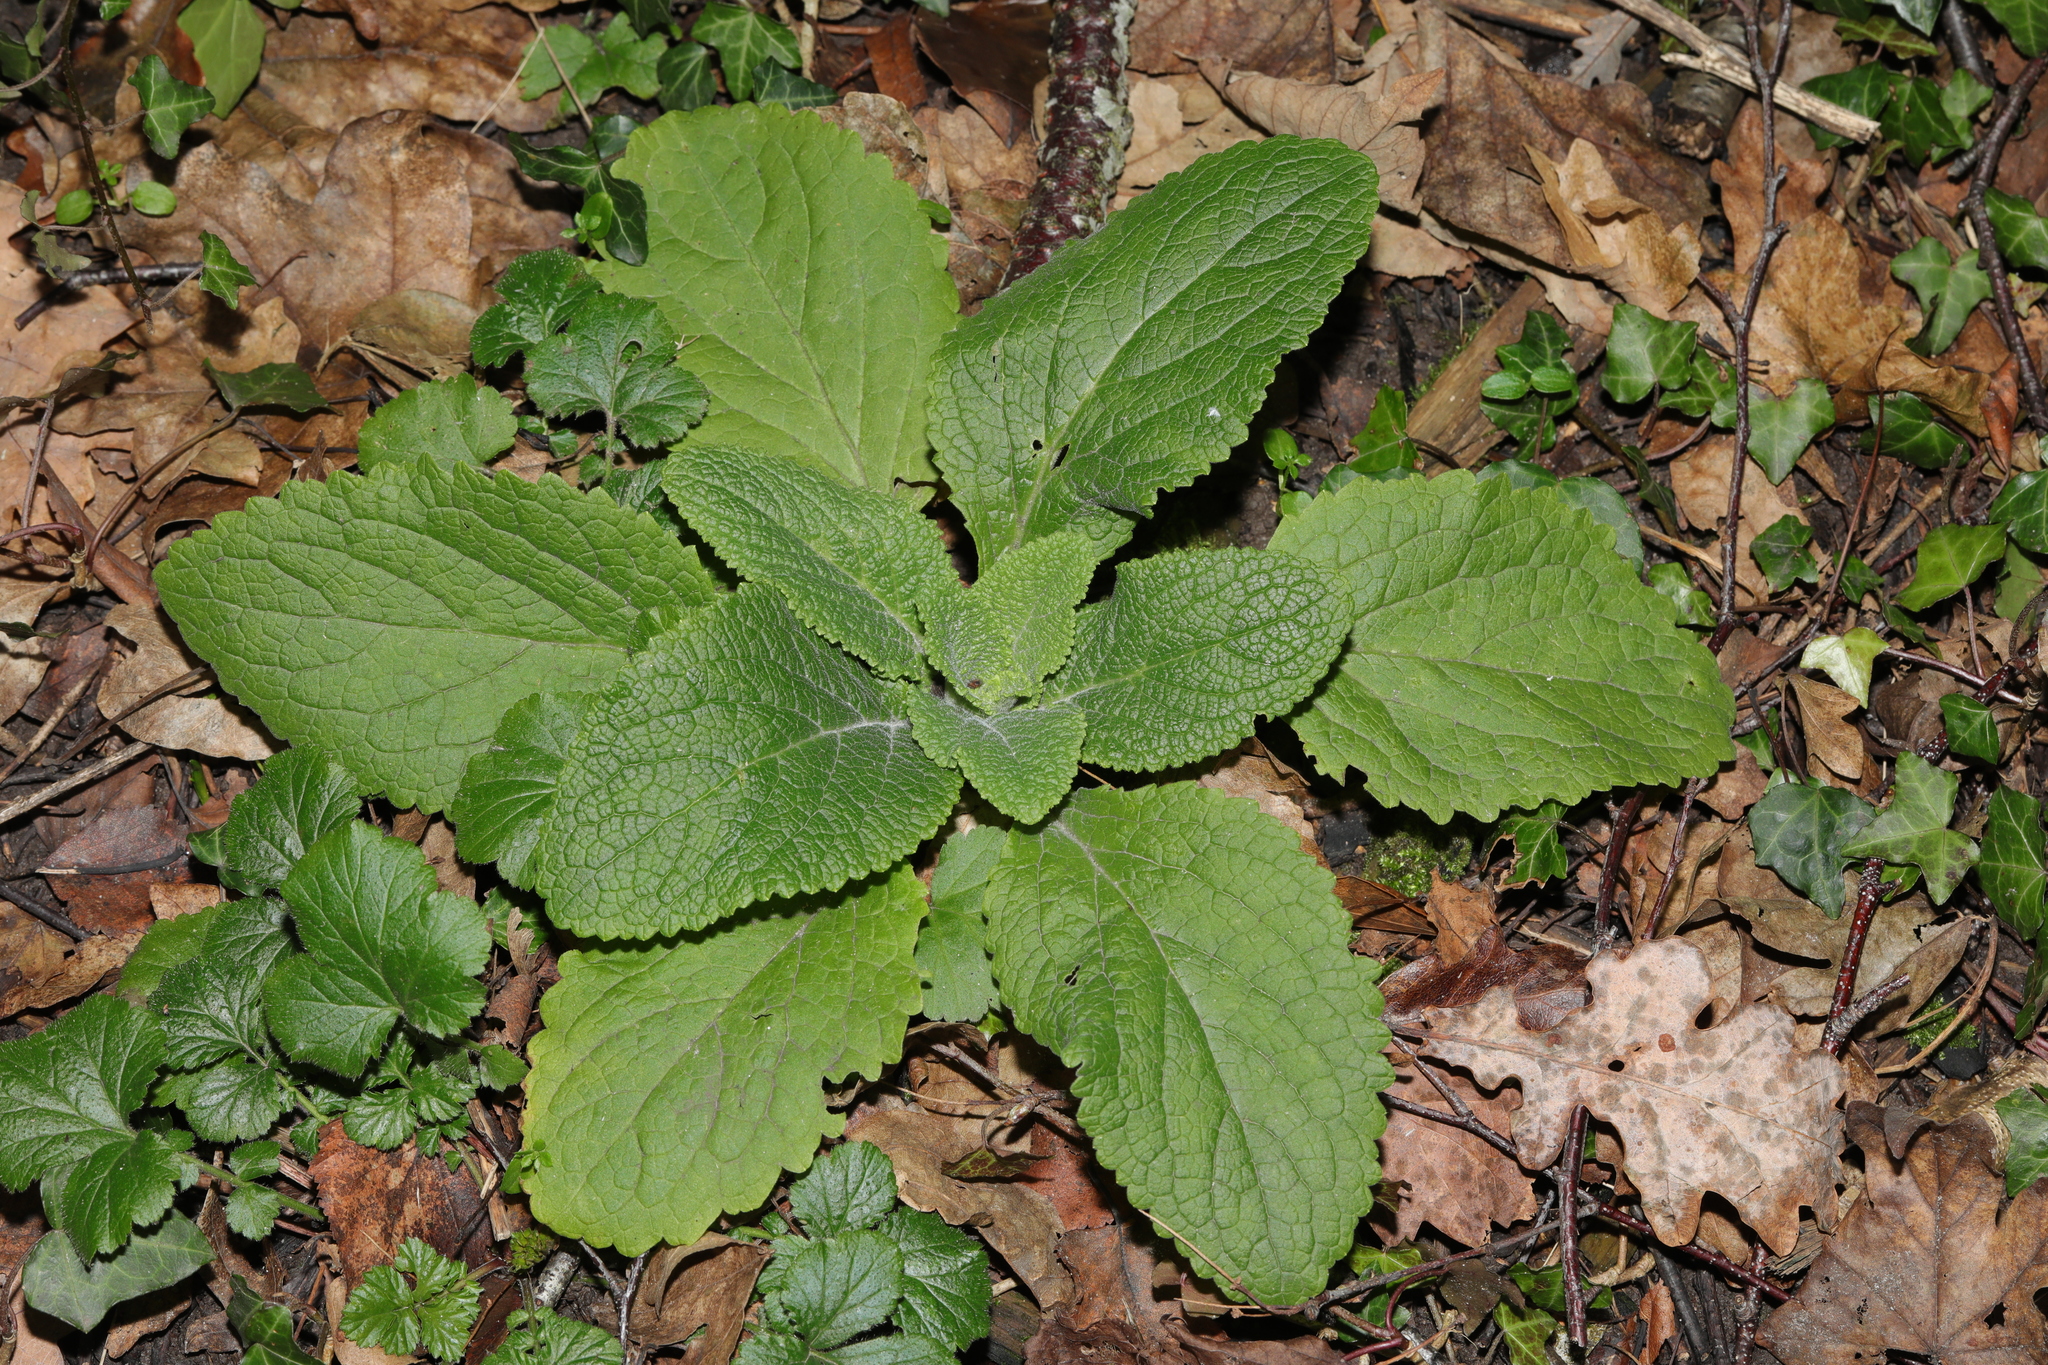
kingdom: Plantae
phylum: Tracheophyta
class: Magnoliopsida
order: Lamiales
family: Plantaginaceae
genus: Digitalis
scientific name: Digitalis purpurea
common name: Foxglove
